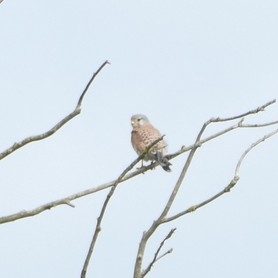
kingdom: Animalia
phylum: Chordata
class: Aves
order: Falconiformes
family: Falconidae
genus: Falco
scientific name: Falco tinnunculus
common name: Common kestrel
